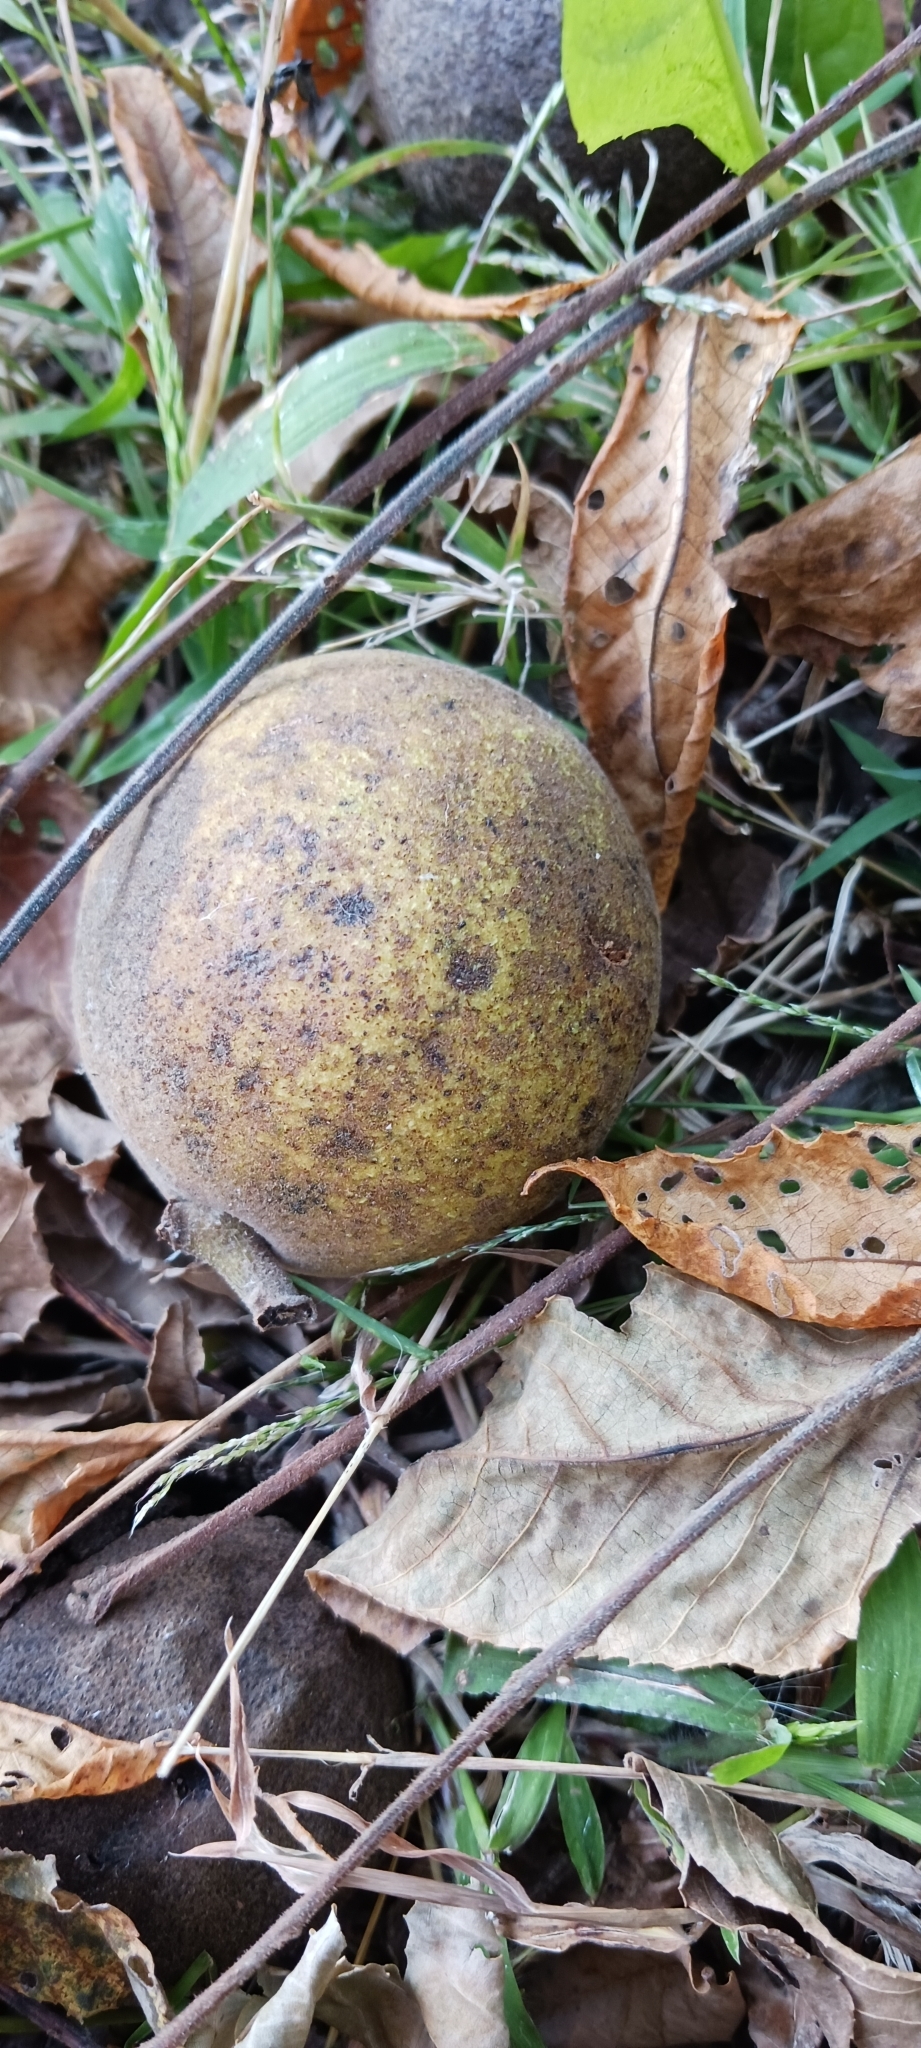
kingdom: Plantae
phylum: Tracheophyta
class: Magnoliopsida
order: Fagales
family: Juglandaceae
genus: Juglans
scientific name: Juglans nigra
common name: Black walnut
